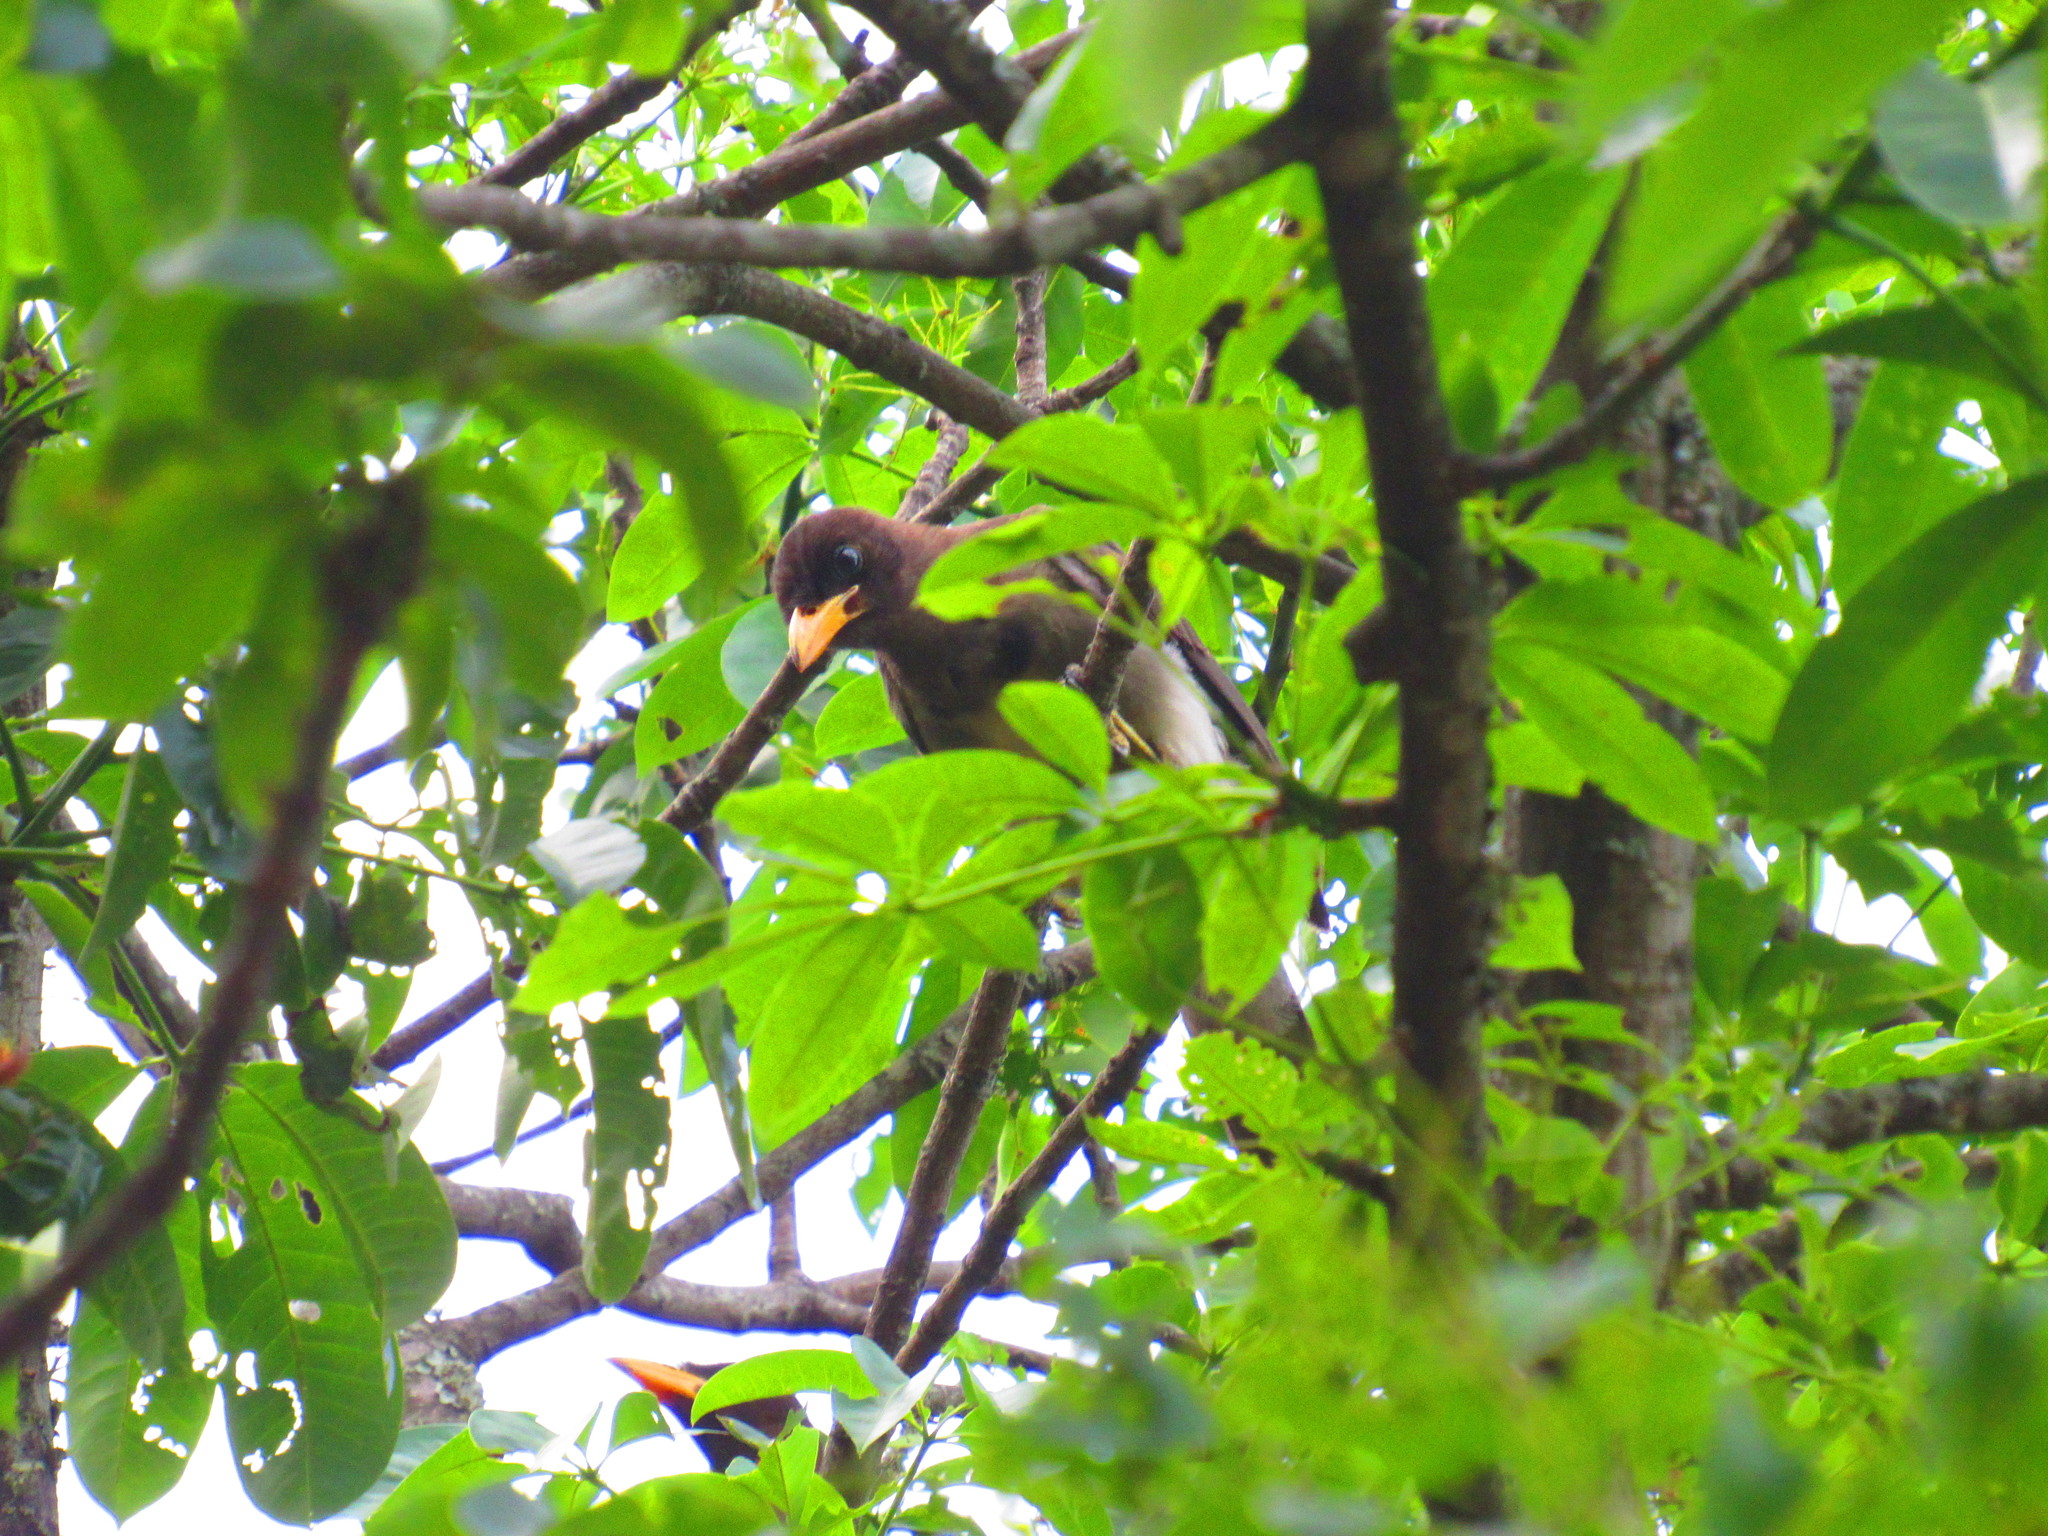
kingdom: Animalia
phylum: Chordata
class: Aves
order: Passeriformes
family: Corvidae
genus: Psilorhinus
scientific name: Psilorhinus morio
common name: Brown jay
